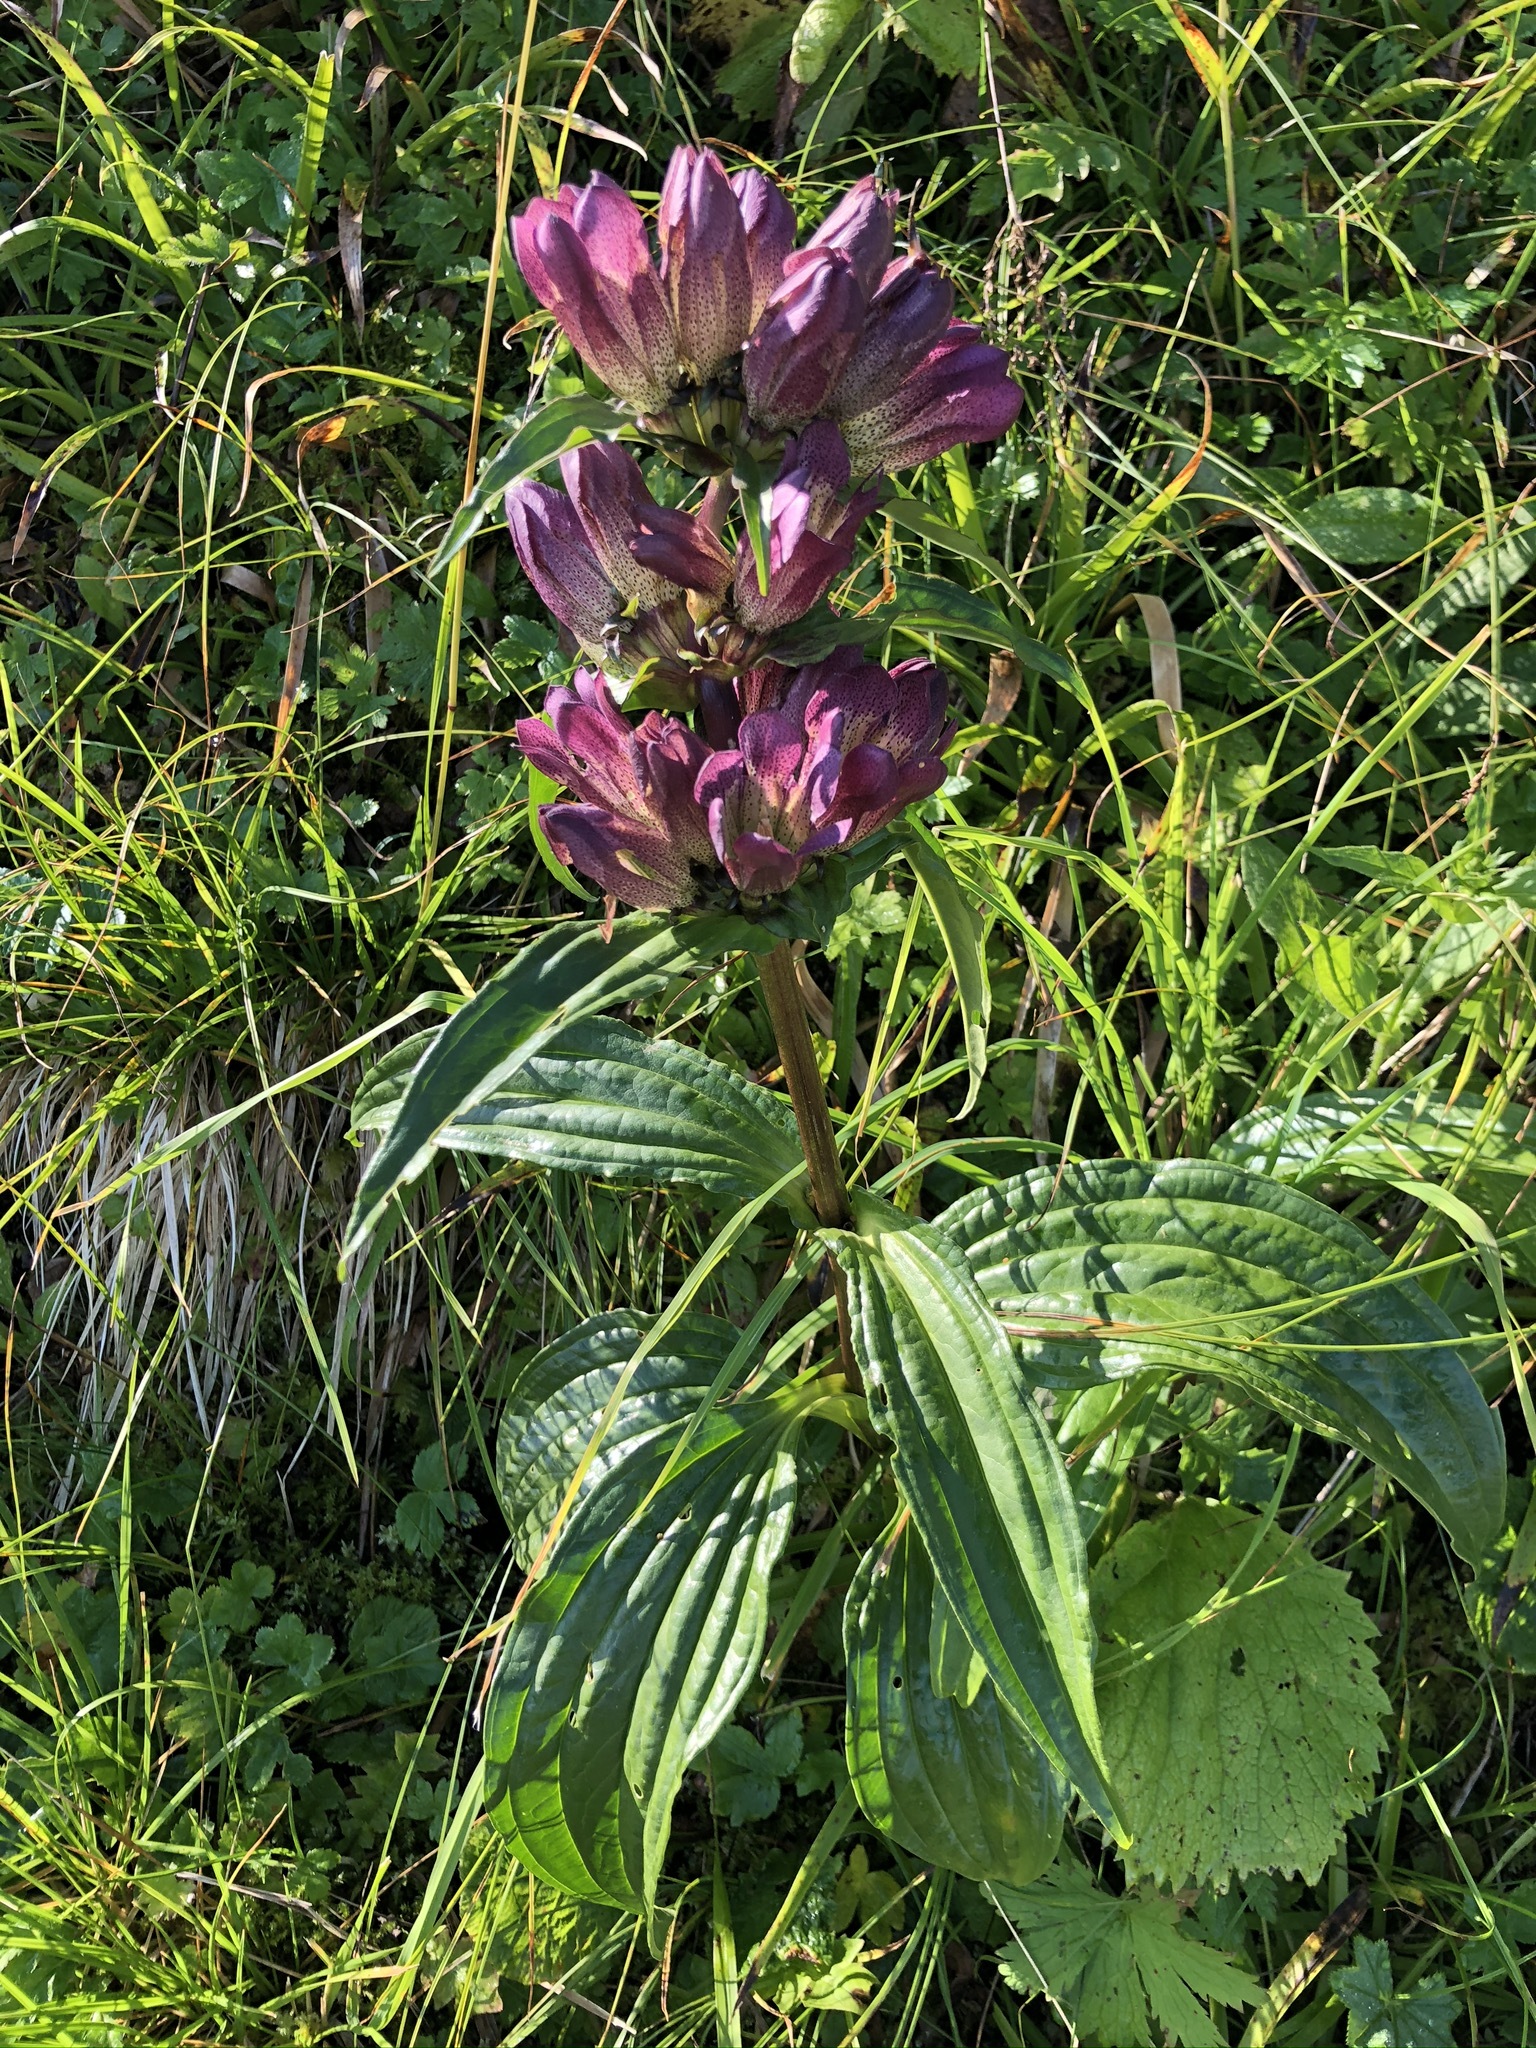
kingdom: Plantae
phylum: Tracheophyta
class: Magnoliopsida
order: Gentianales
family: Gentianaceae
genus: Gentiana
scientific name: Gentiana pannonica
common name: Hungarian gentian
